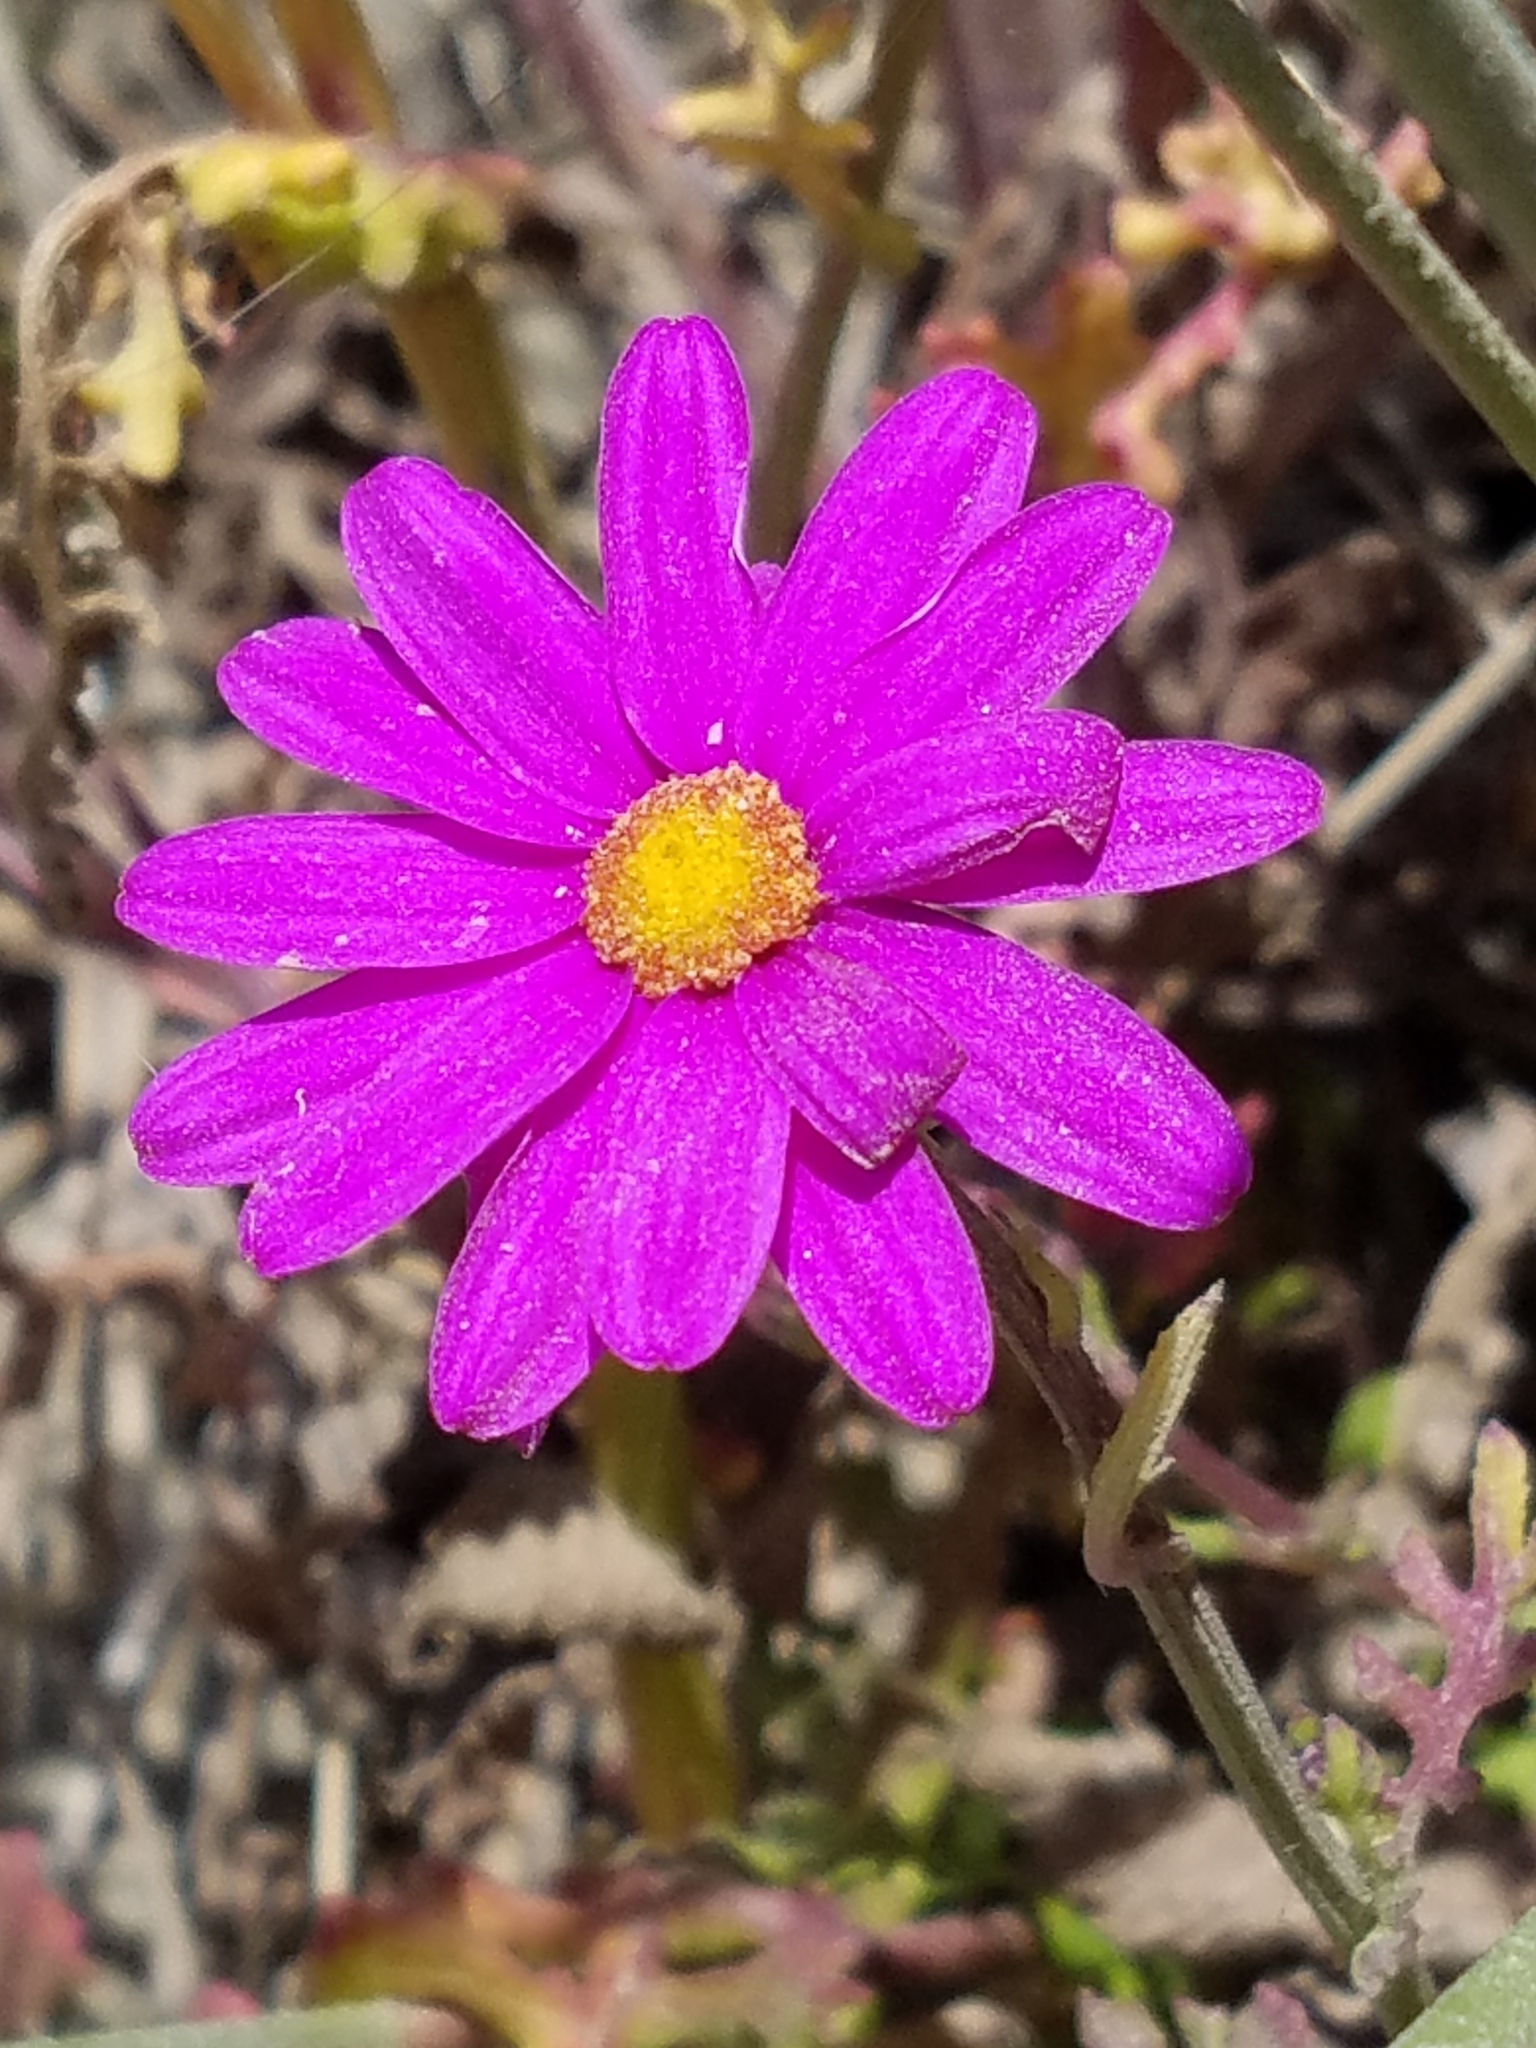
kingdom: Plantae
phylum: Tracheophyta
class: Magnoliopsida
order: Asterales
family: Asteraceae
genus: Senecio
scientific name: Senecio elegans
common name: Purple groundsel
